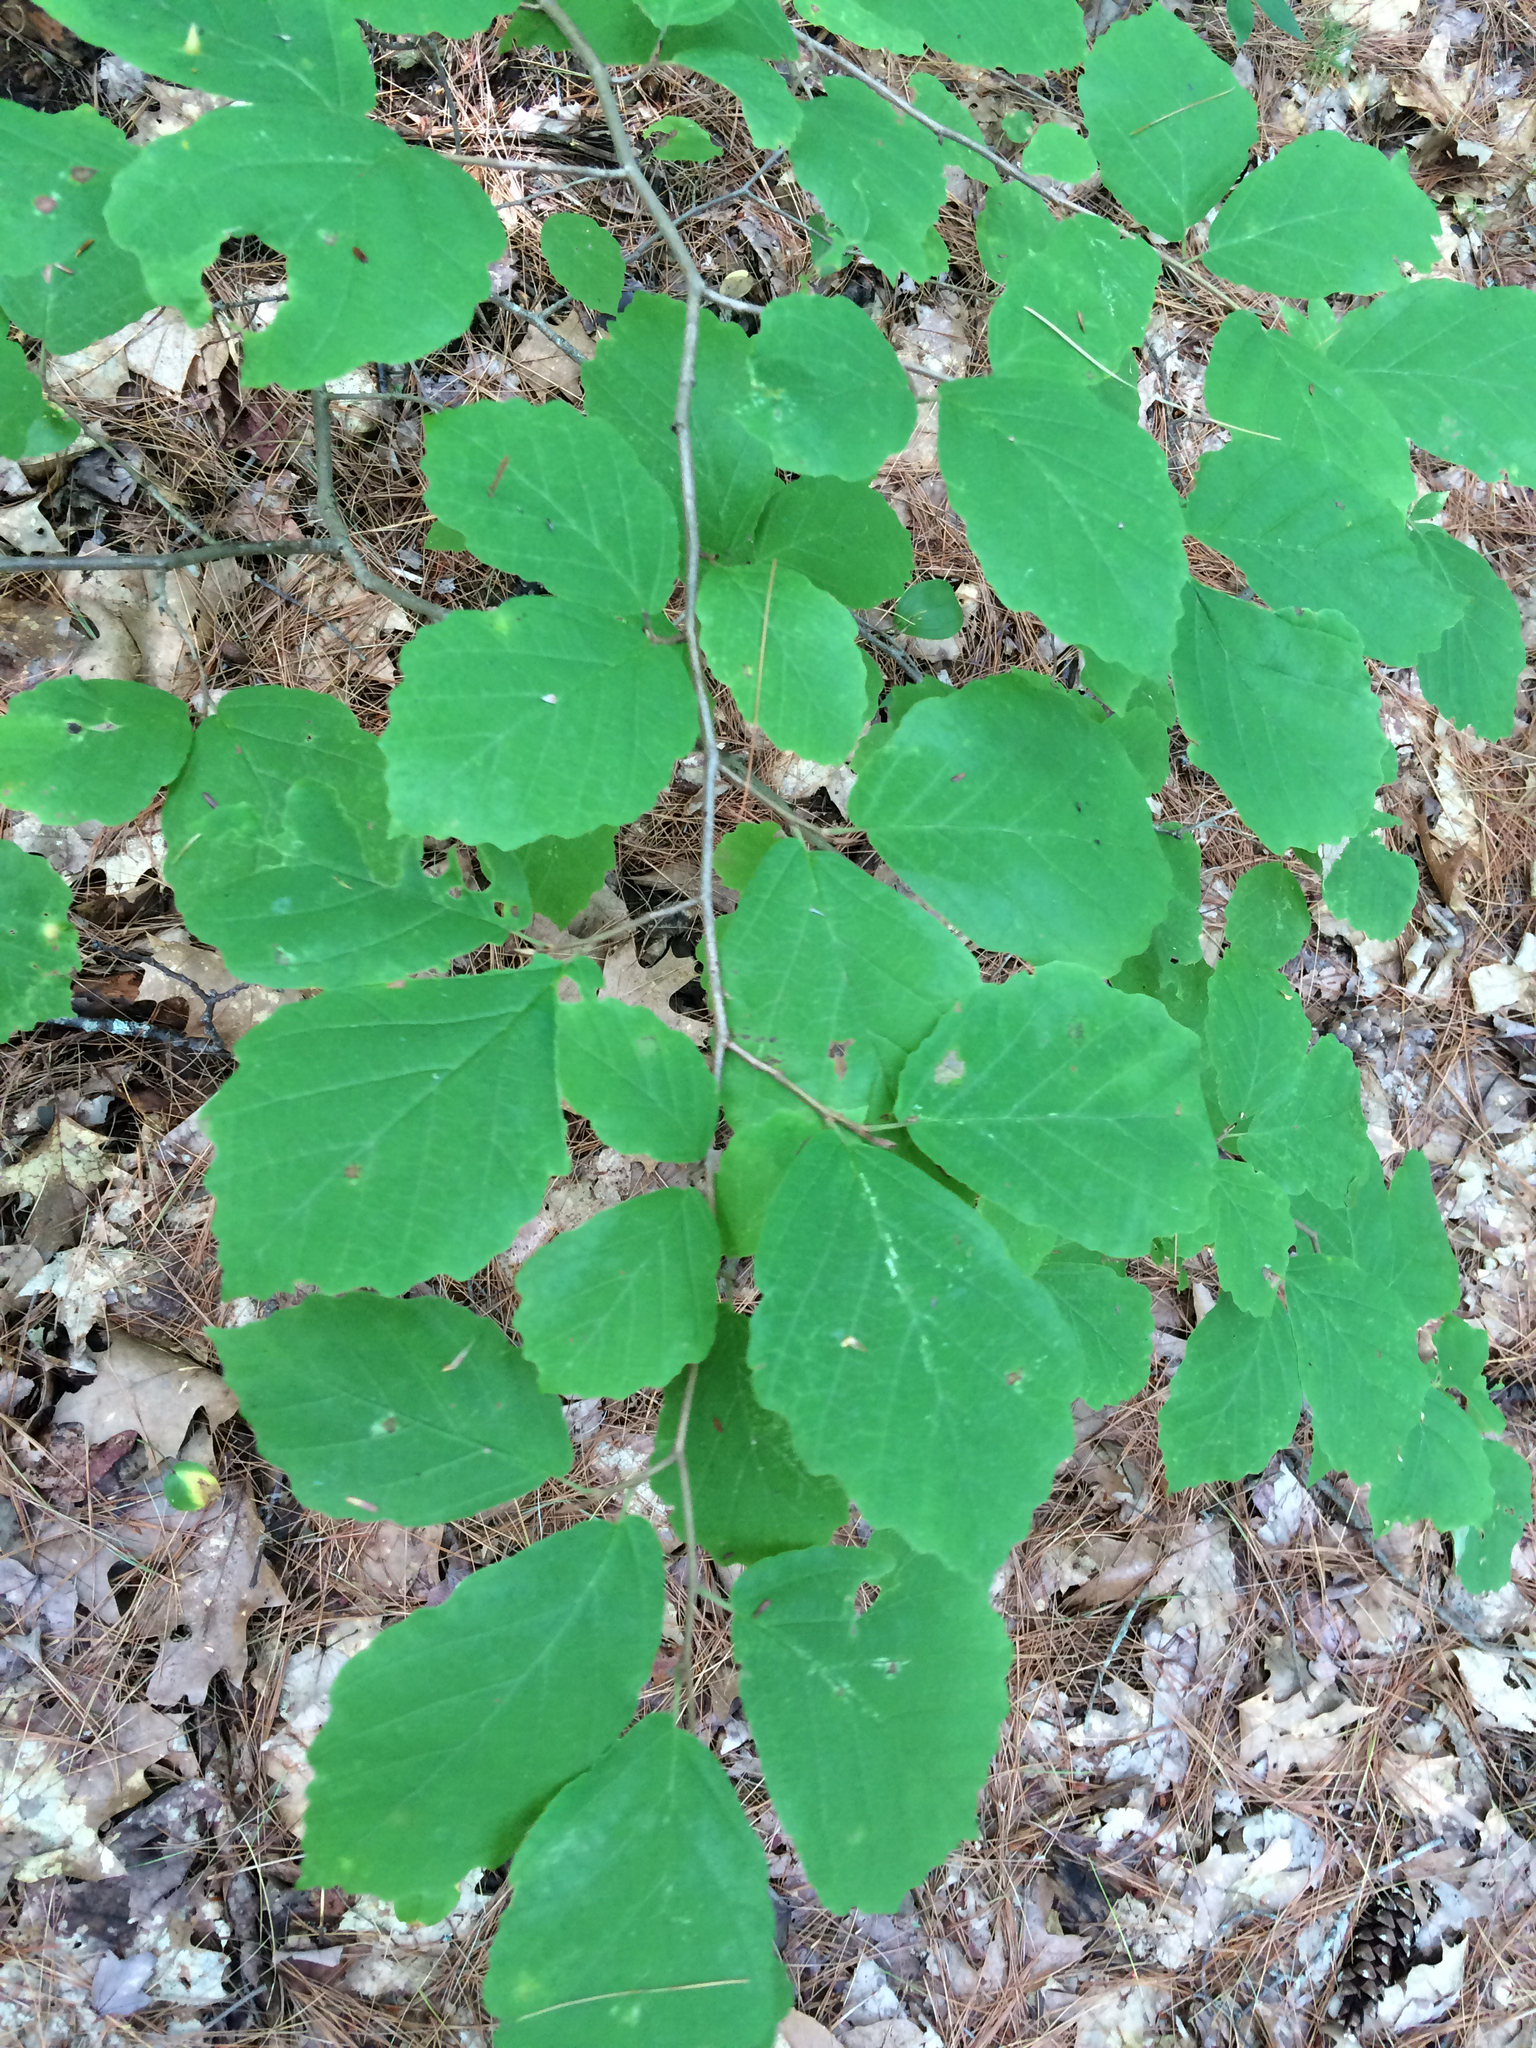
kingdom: Plantae
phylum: Tracheophyta
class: Magnoliopsida
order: Saxifragales
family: Hamamelidaceae
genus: Hamamelis
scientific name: Hamamelis virginiana
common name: Witch-hazel
